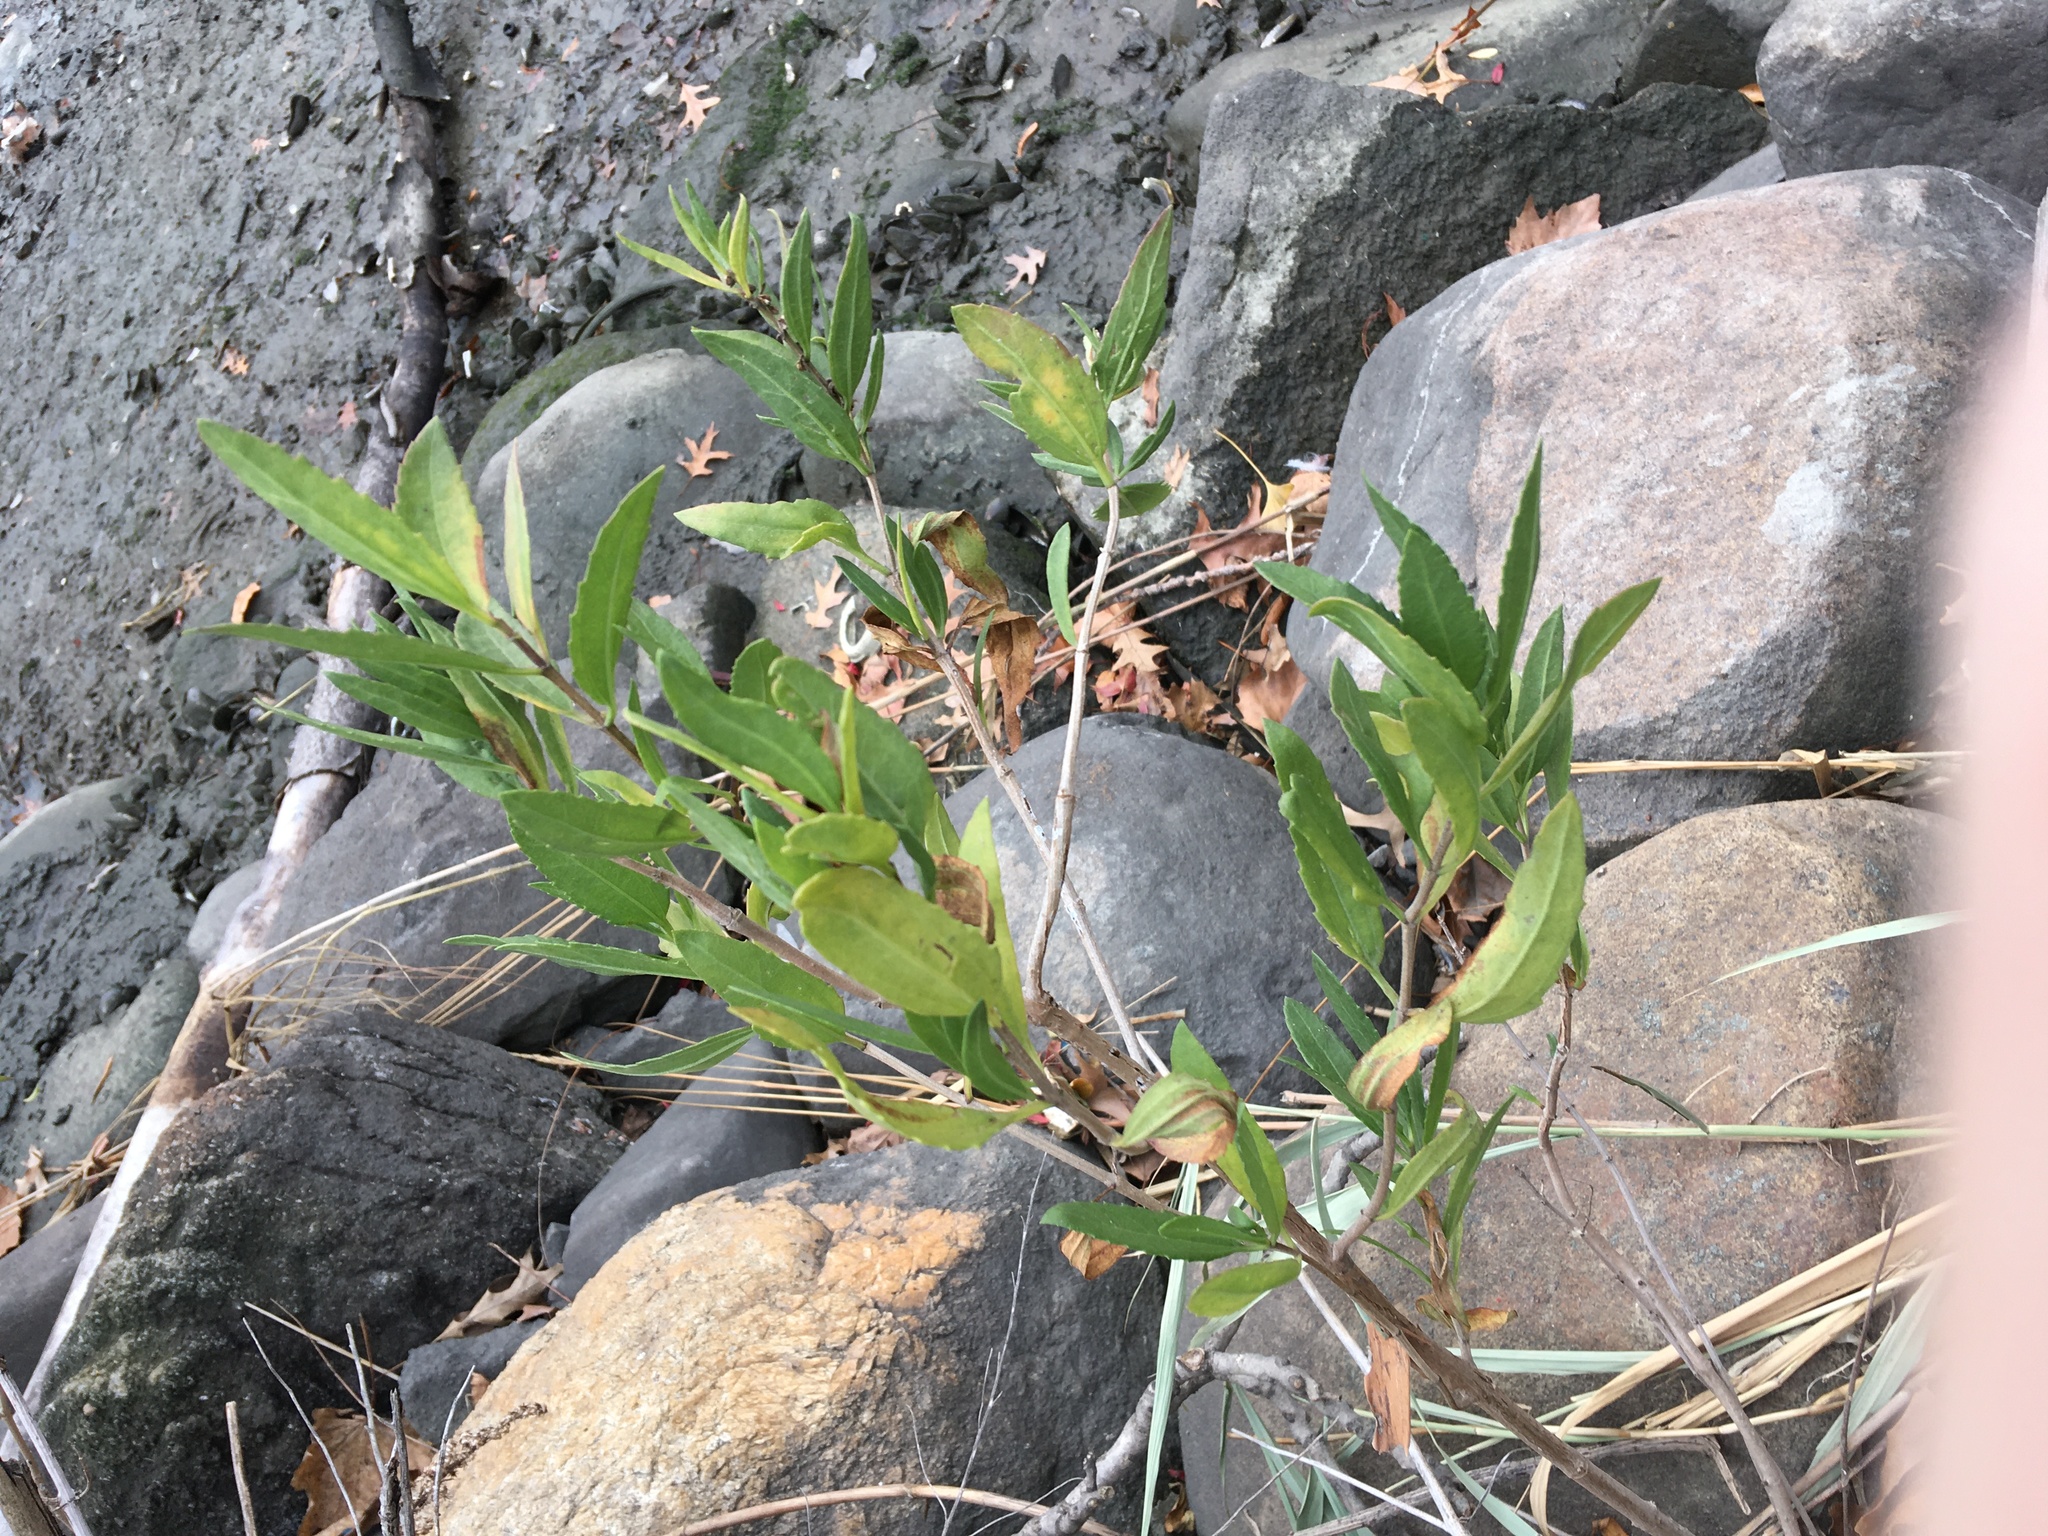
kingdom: Plantae
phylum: Tracheophyta
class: Magnoliopsida
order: Asterales
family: Asteraceae
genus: Iva
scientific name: Iva frutescens
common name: Big-leaved marsh-elder
